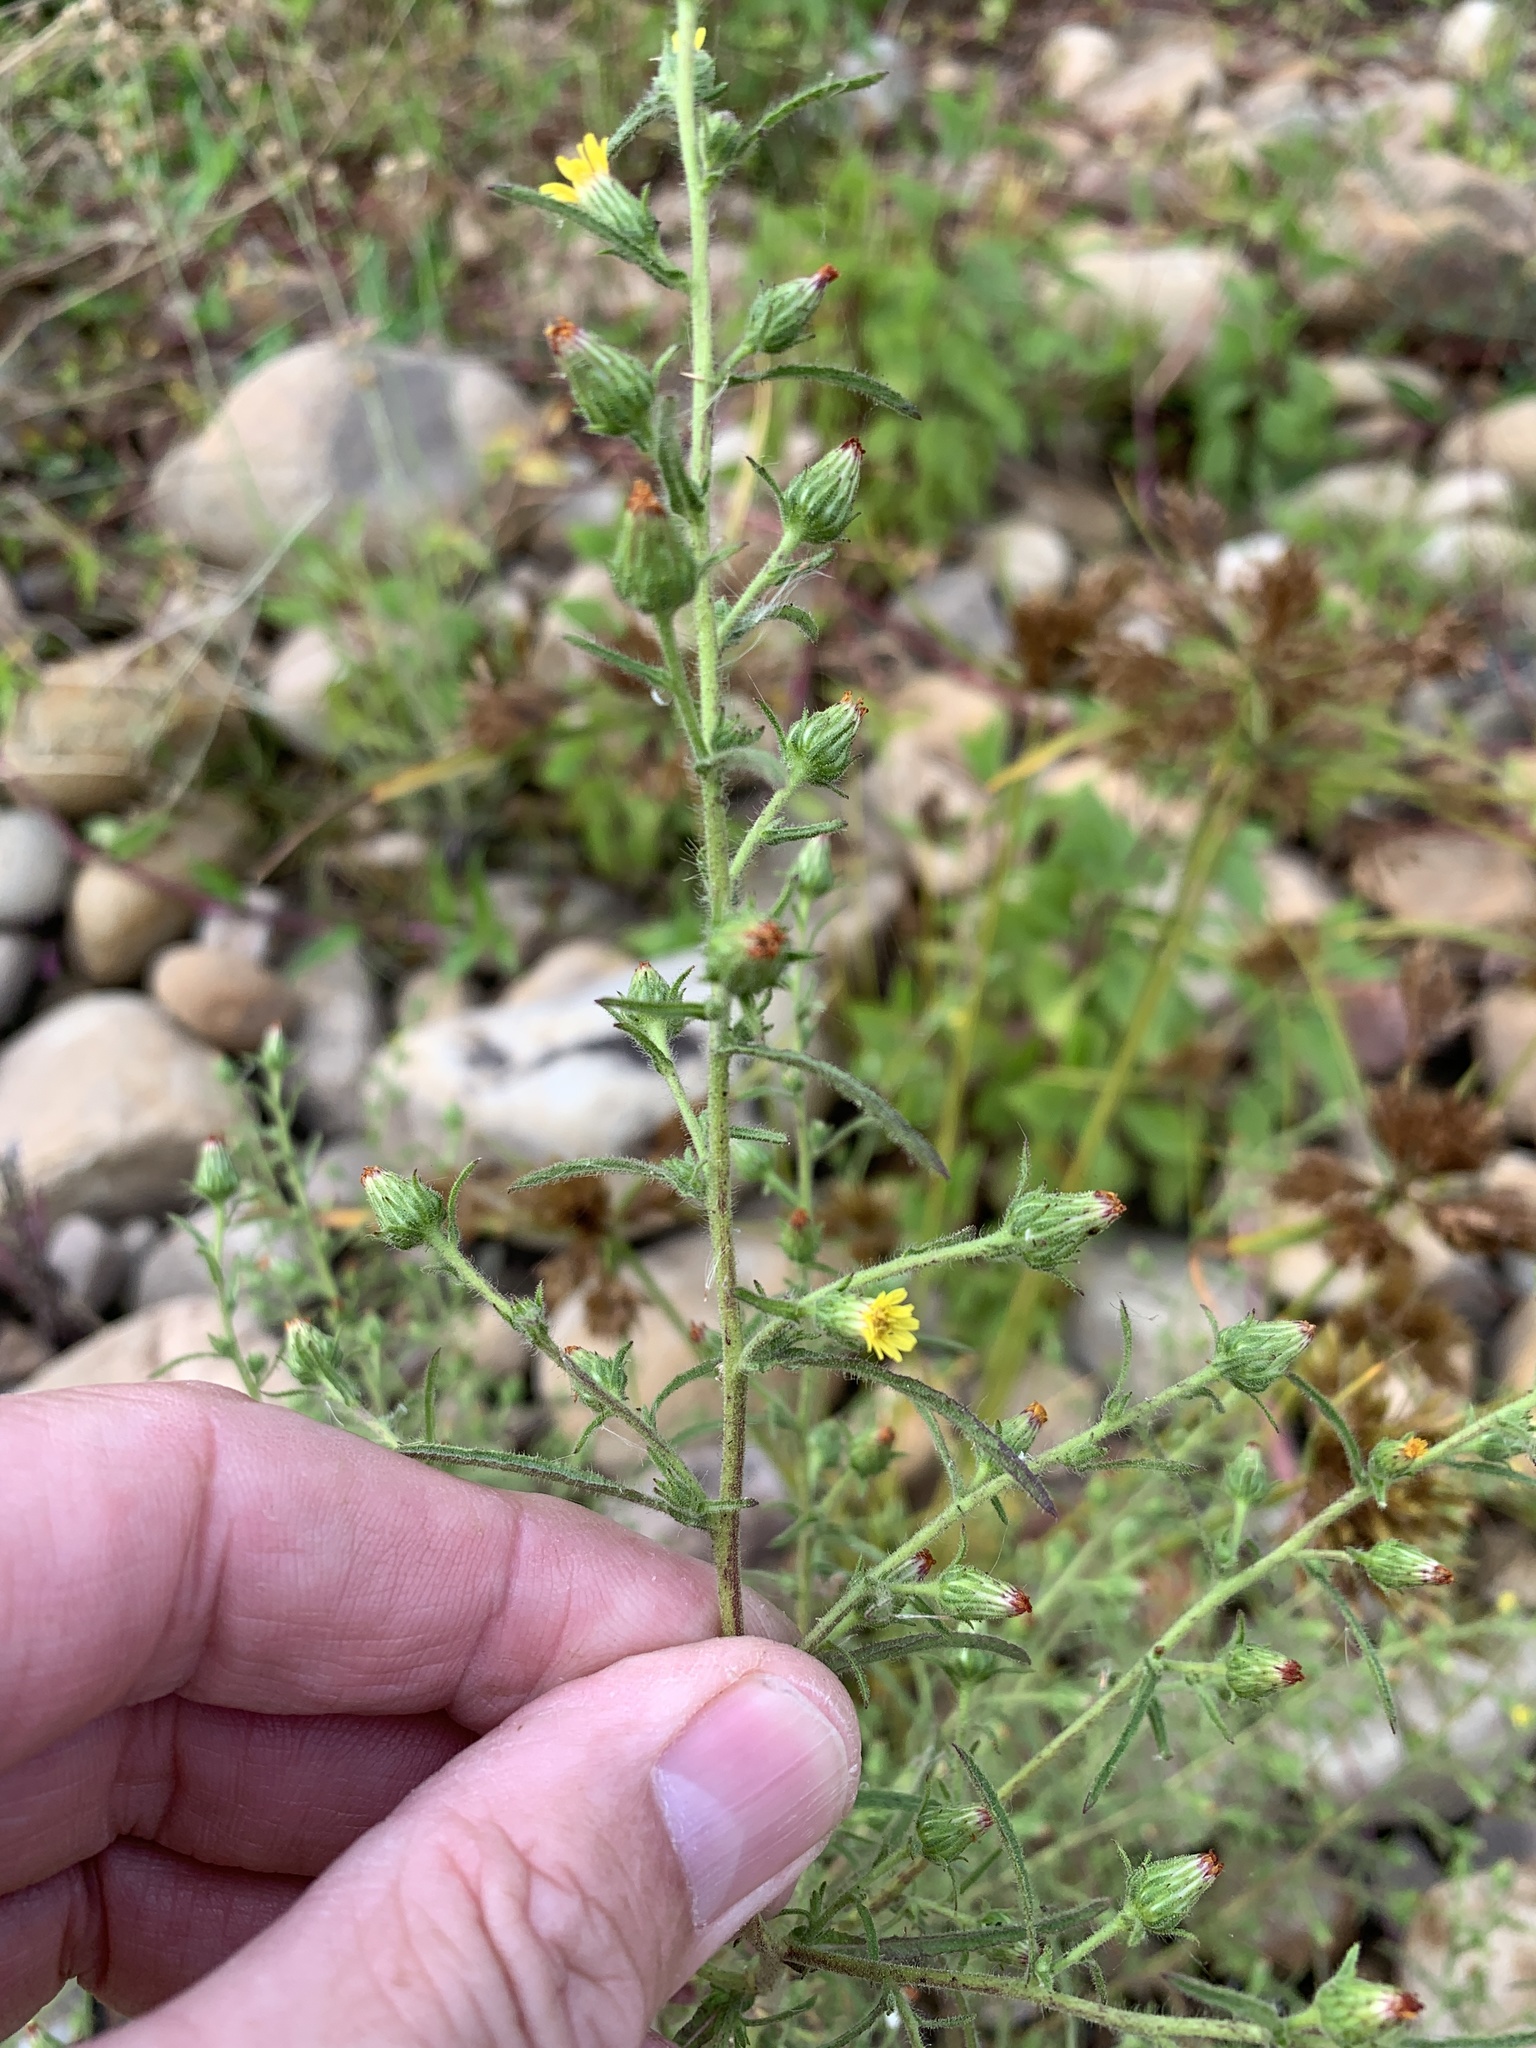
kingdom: Plantae
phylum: Tracheophyta
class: Magnoliopsida
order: Asterales
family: Asteraceae
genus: Dittrichia
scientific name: Dittrichia graveolens
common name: Stinking fleabane
